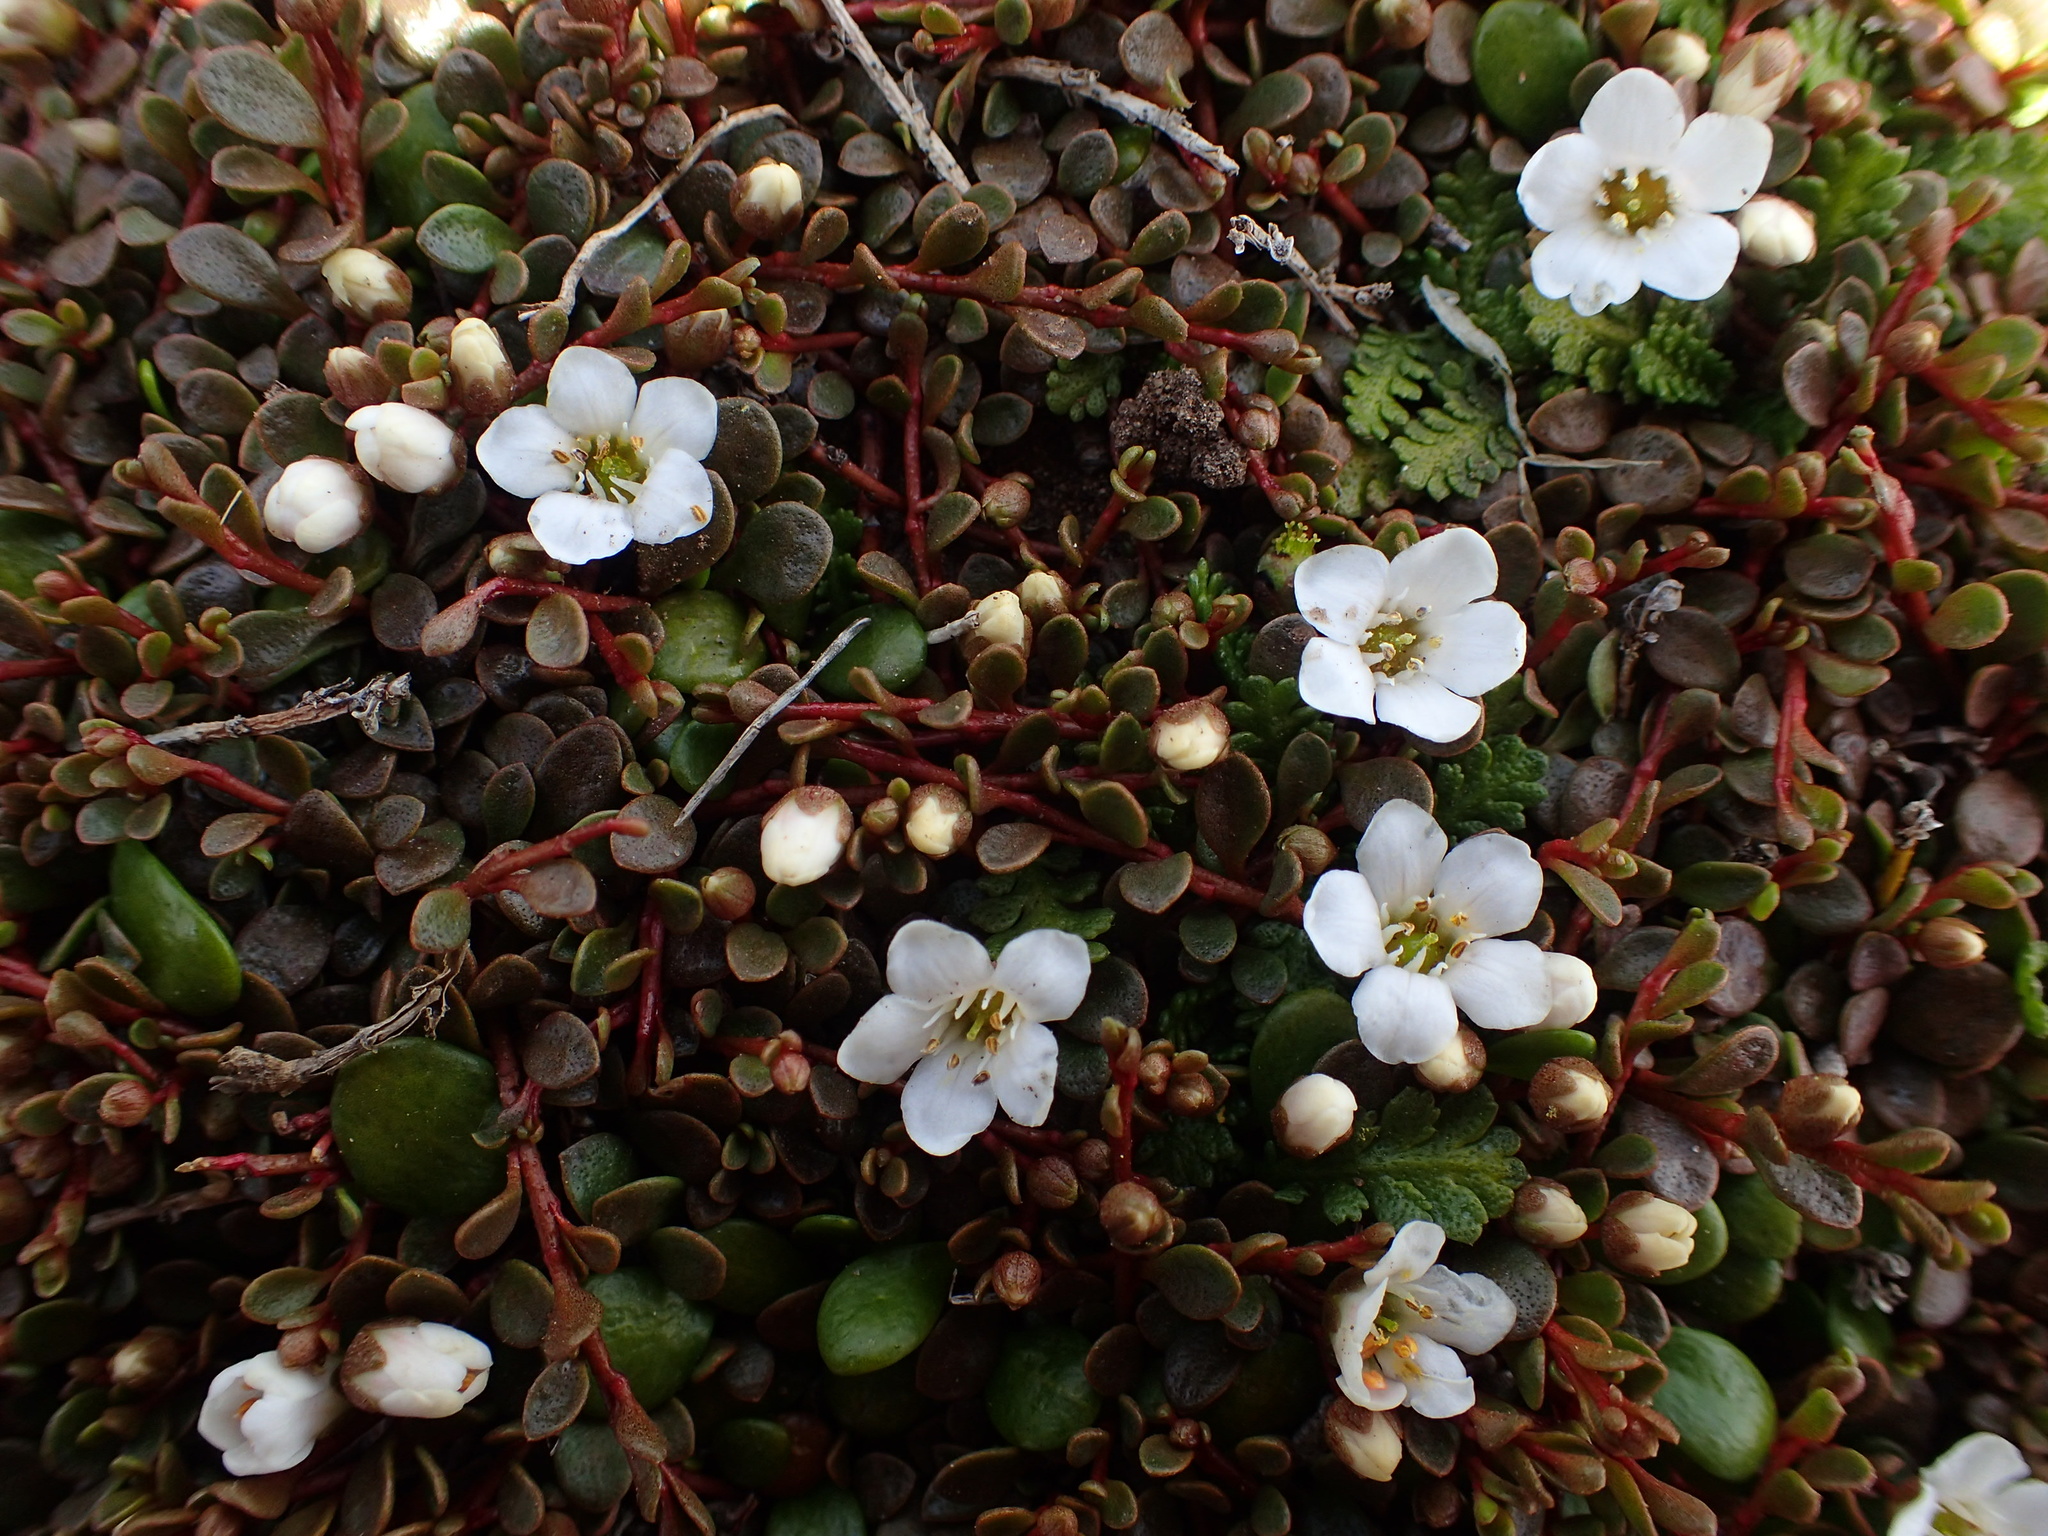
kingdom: Plantae
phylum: Tracheophyta
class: Magnoliopsida
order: Ericales
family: Primulaceae
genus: Samolus
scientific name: Samolus repens
